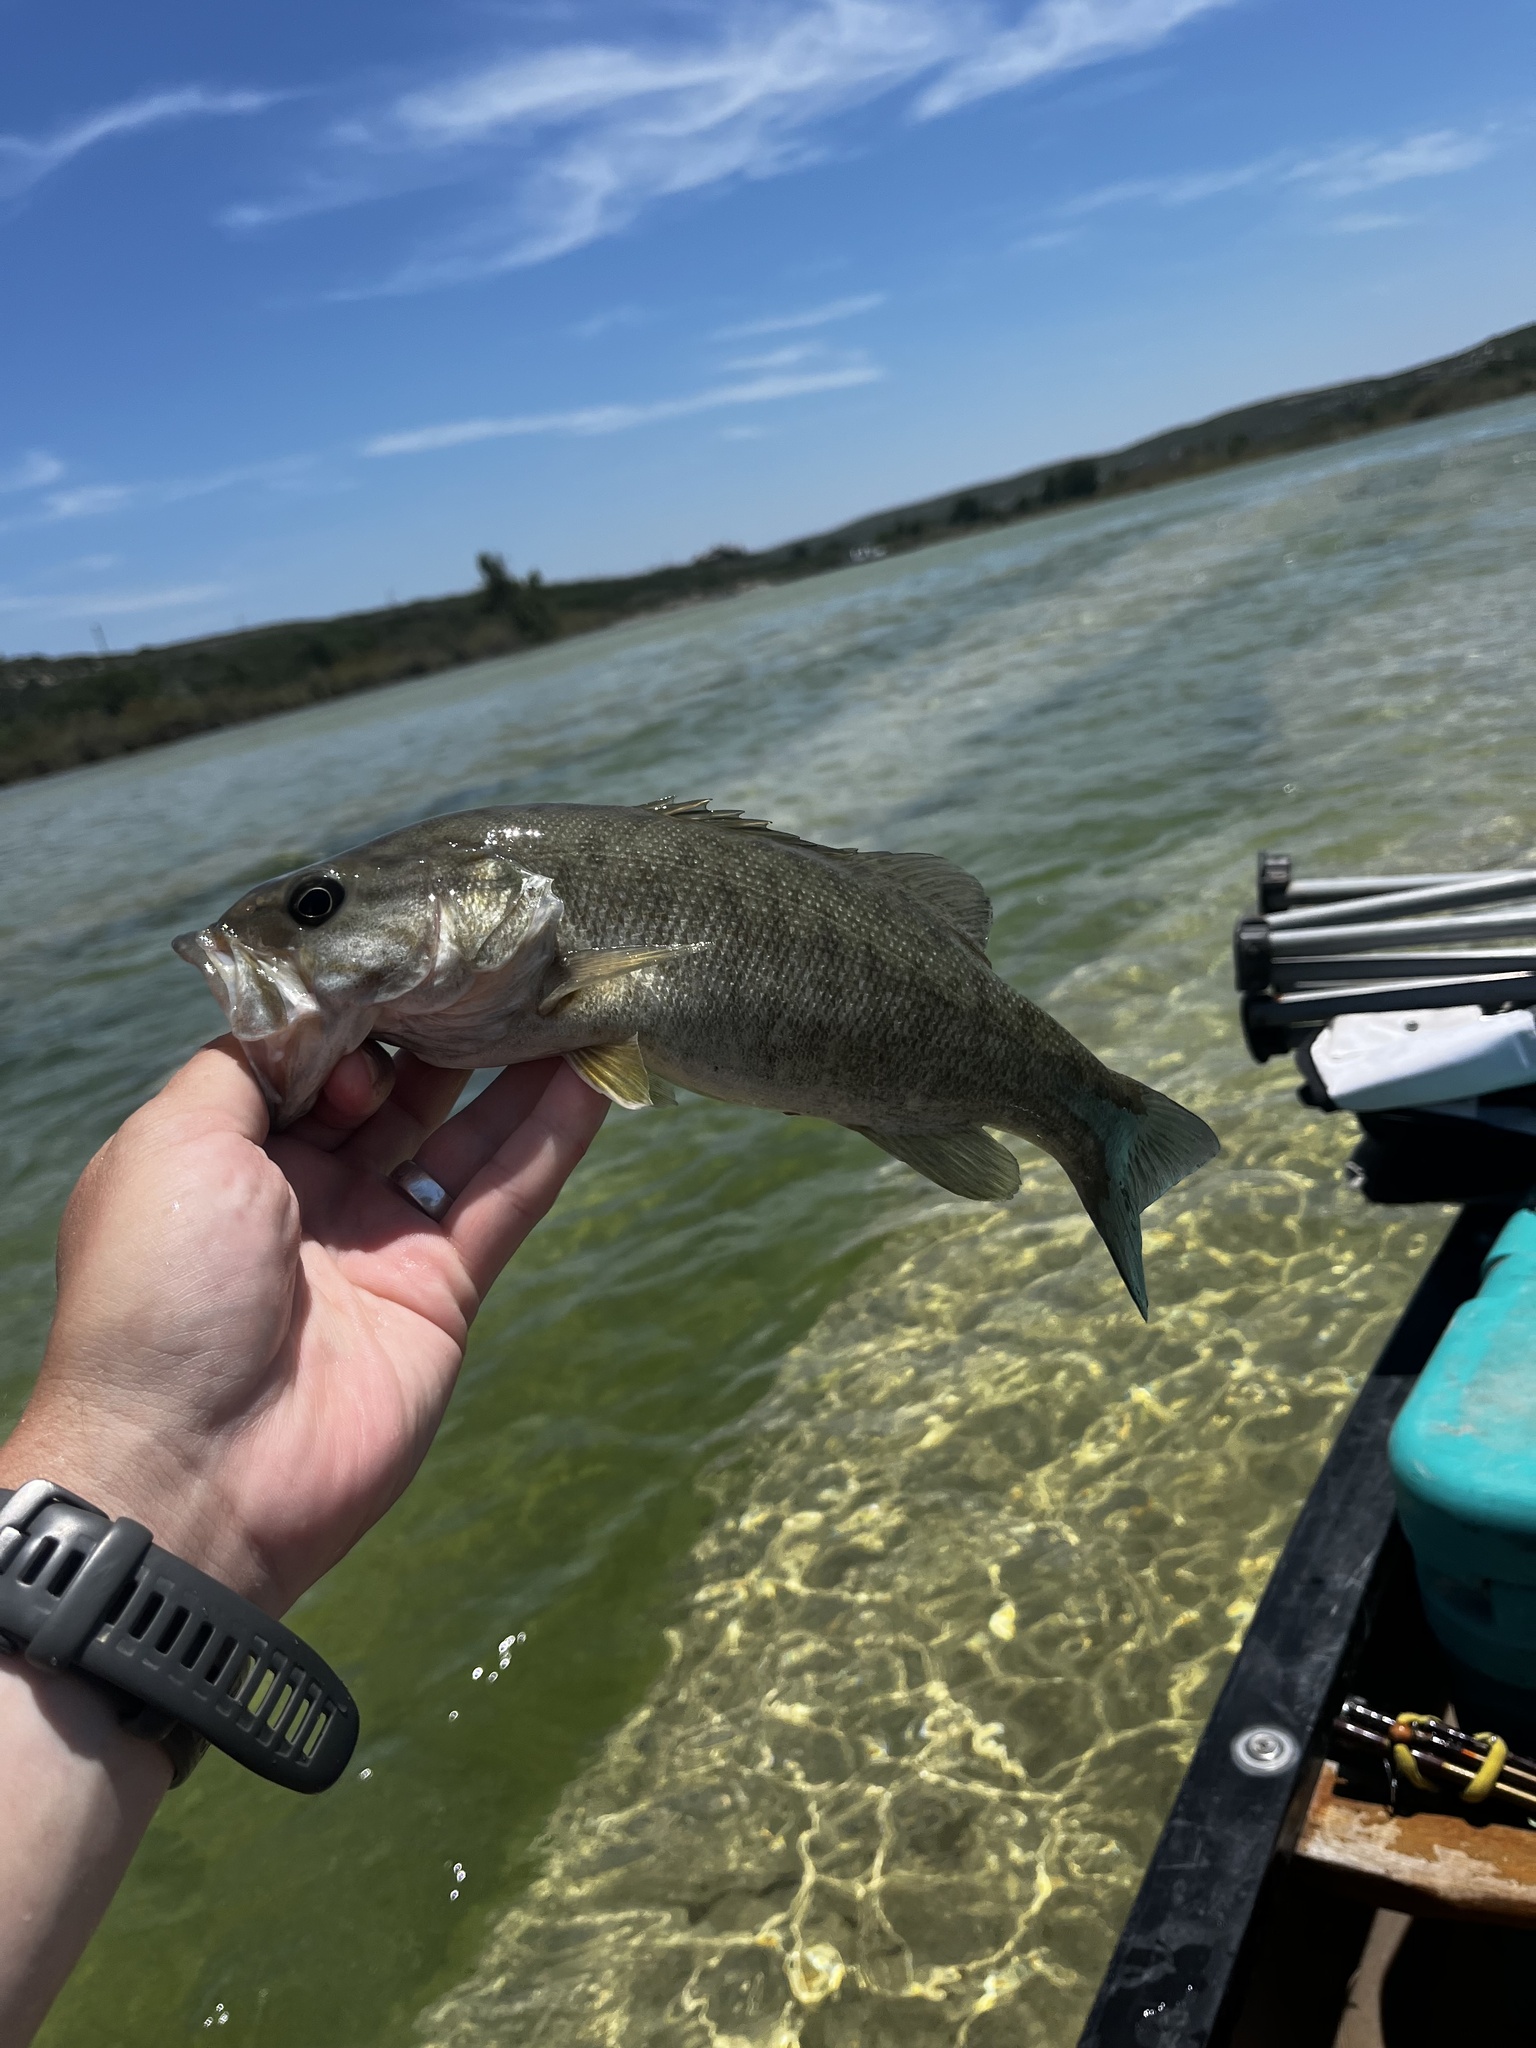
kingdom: Animalia
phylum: Chordata
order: Perciformes
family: Centrarchidae
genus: Micropterus
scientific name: Micropterus dolomieu
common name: Smallmouth bass
